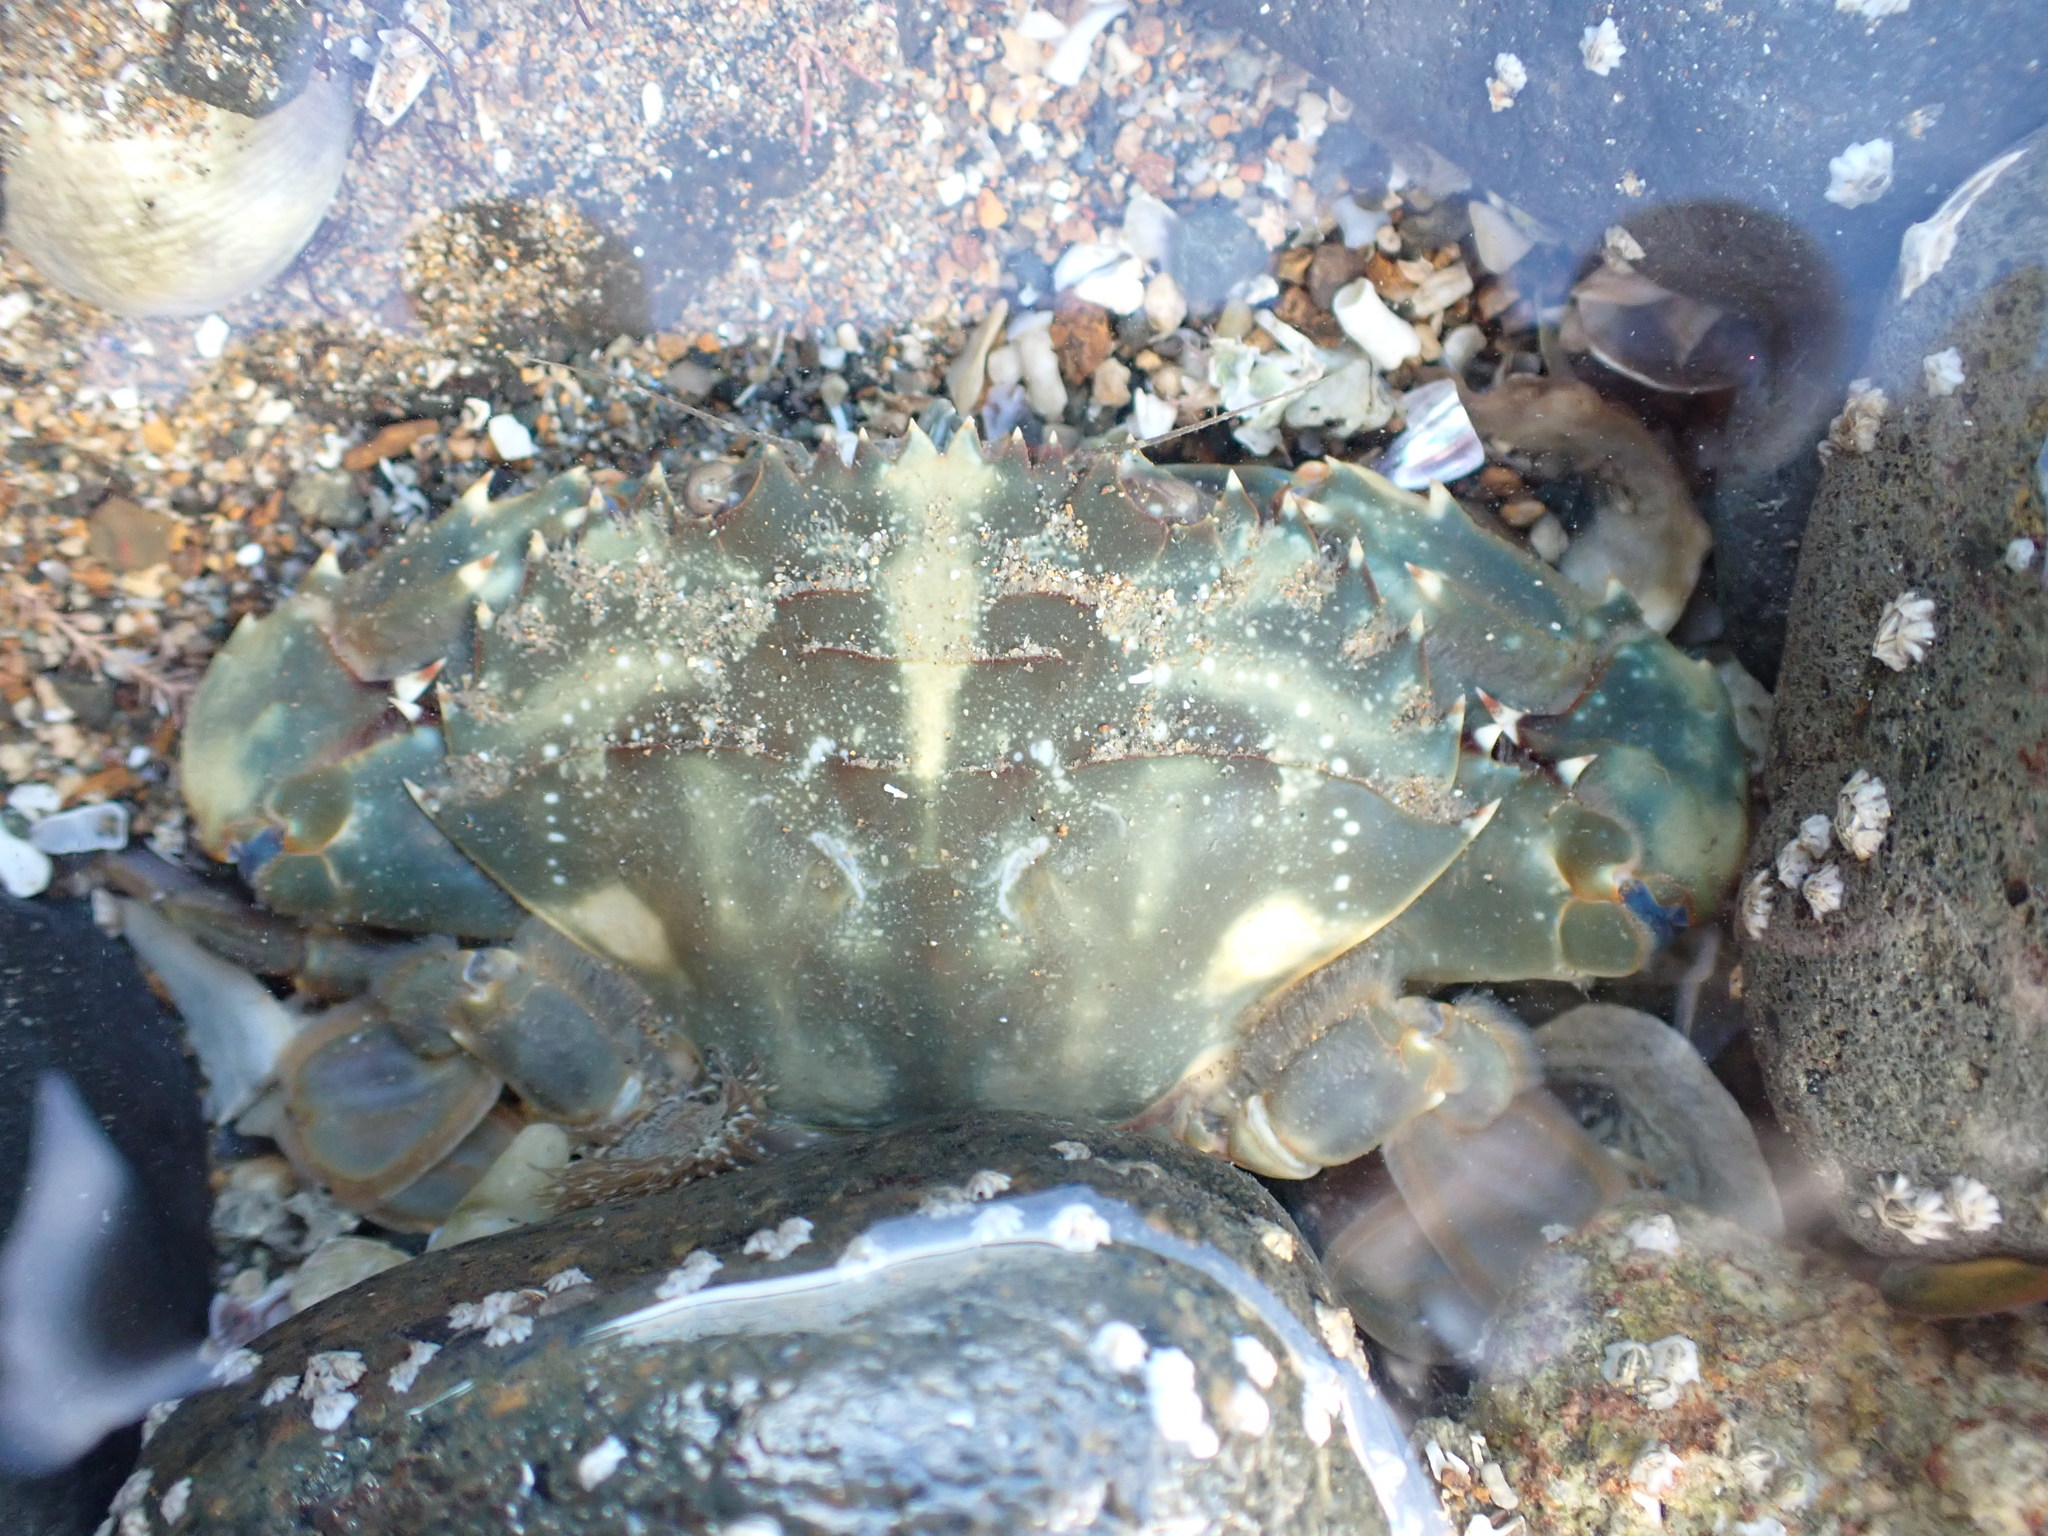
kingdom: Animalia
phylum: Arthropoda
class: Malacostraca
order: Decapoda
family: Portunidae
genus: Charybdis
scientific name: Charybdis japonica
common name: Asian paddle crab
